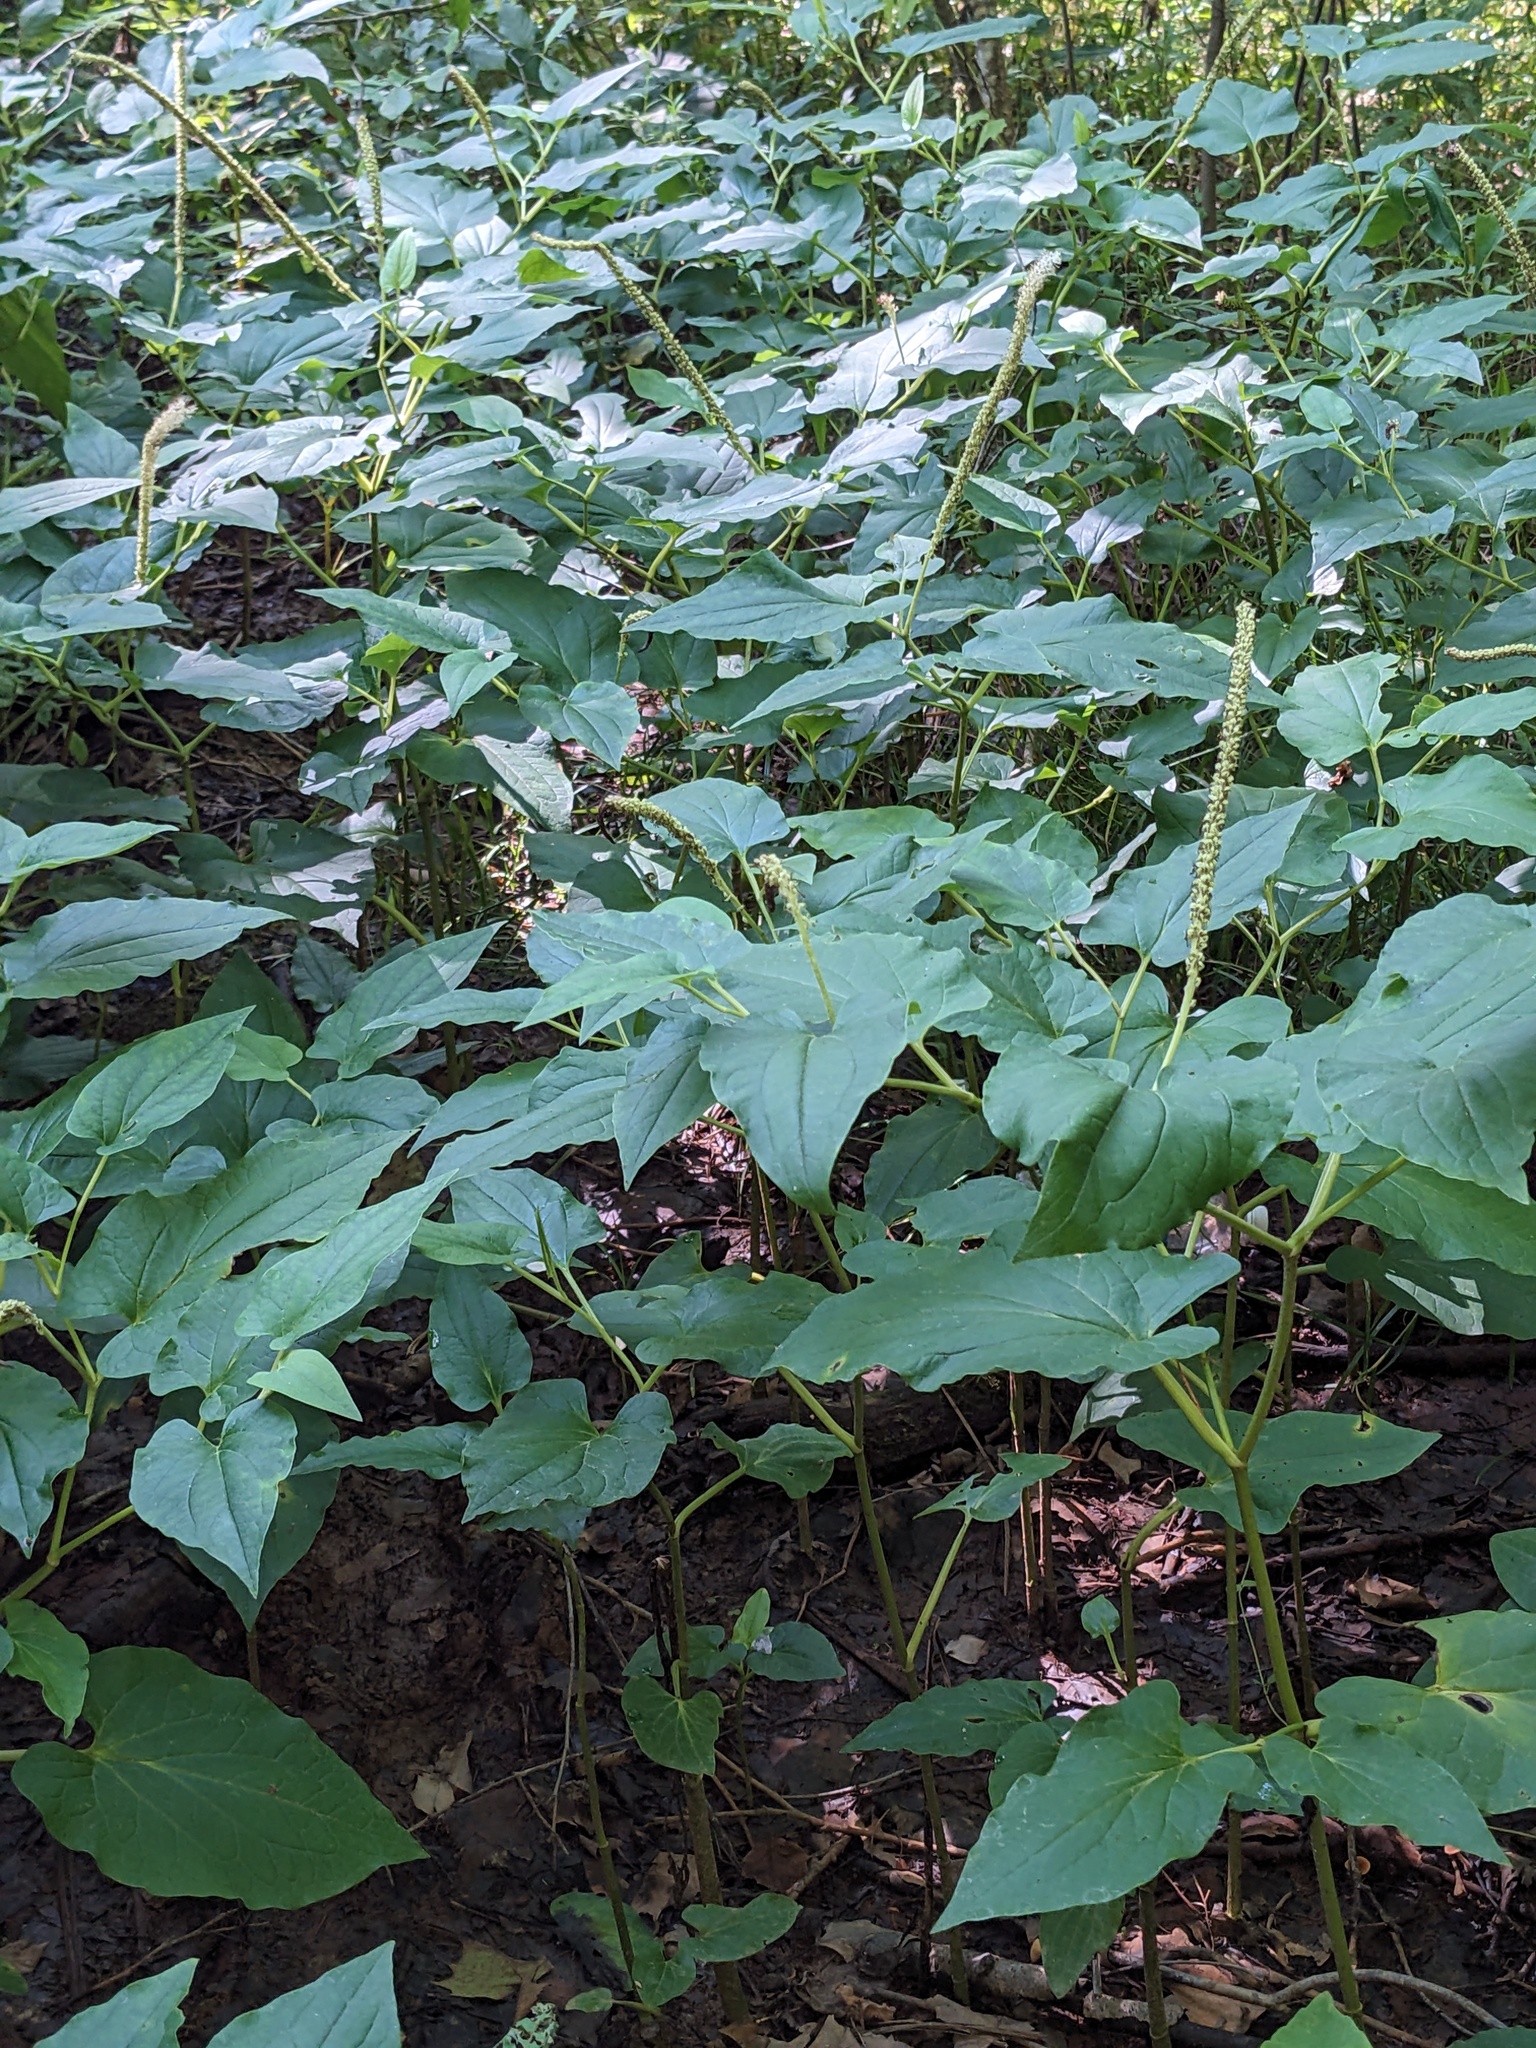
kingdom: Plantae
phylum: Tracheophyta
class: Magnoliopsida
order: Piperales
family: Saururaceae
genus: Saururus
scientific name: Saururus cernuus
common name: Lizard's-tail
